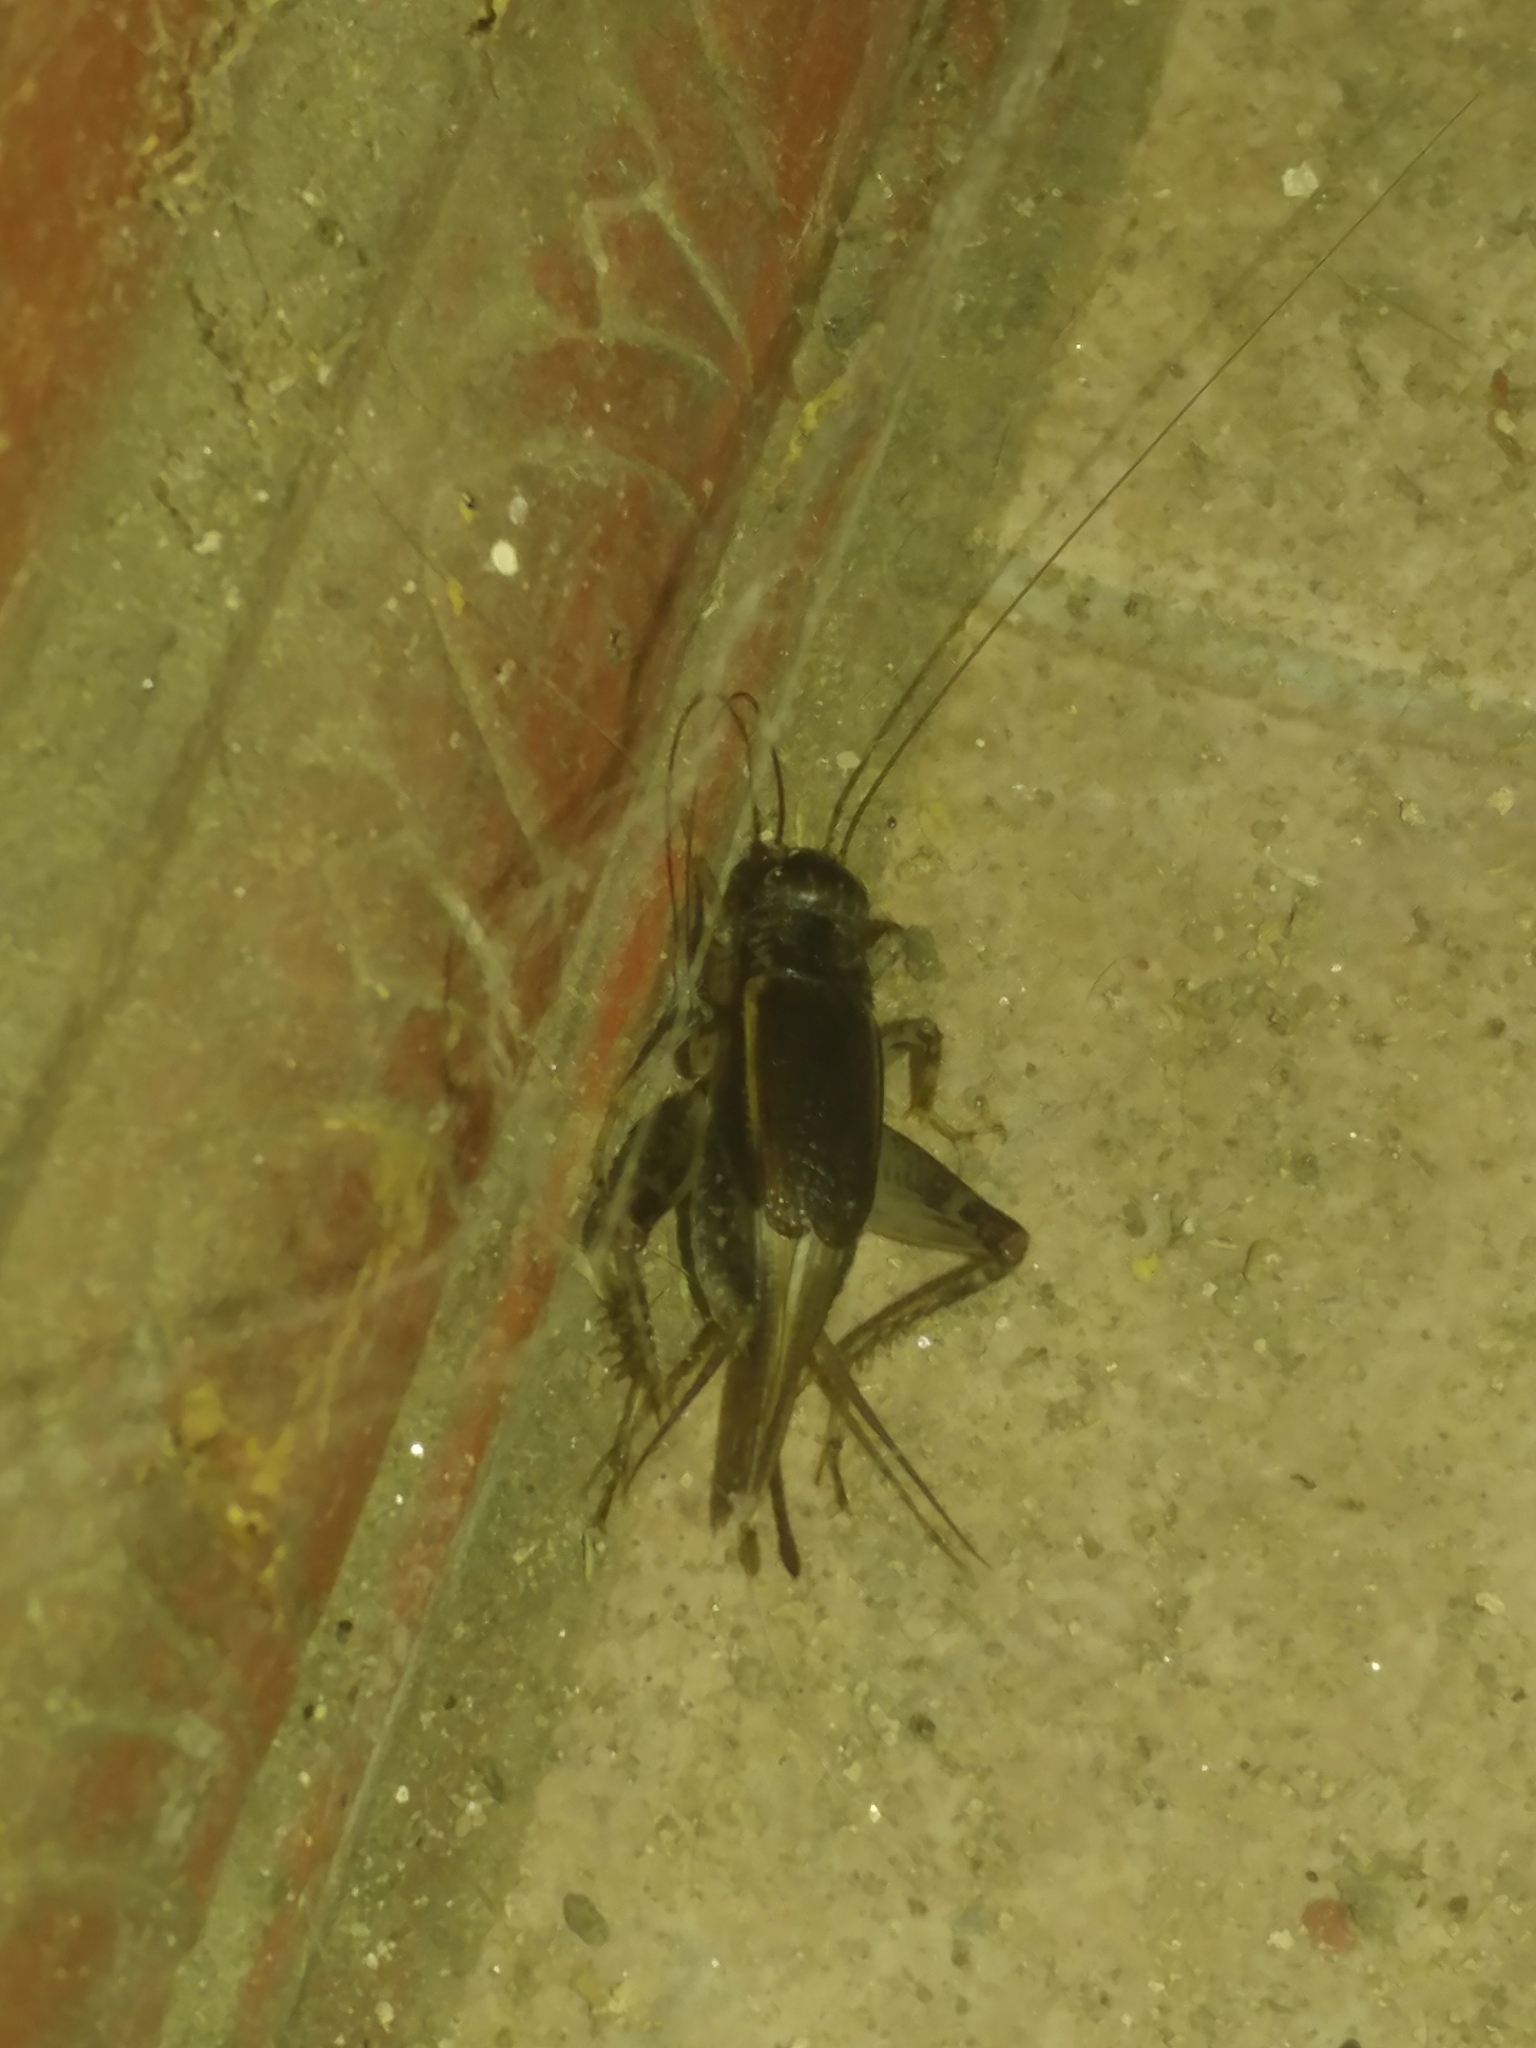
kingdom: Animalia
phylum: Arthropoda
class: Insecta
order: Orthoptera
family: Gryllidae
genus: Velarifictorus
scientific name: Velarifictorus micado
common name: Japanese burrowing cricket
